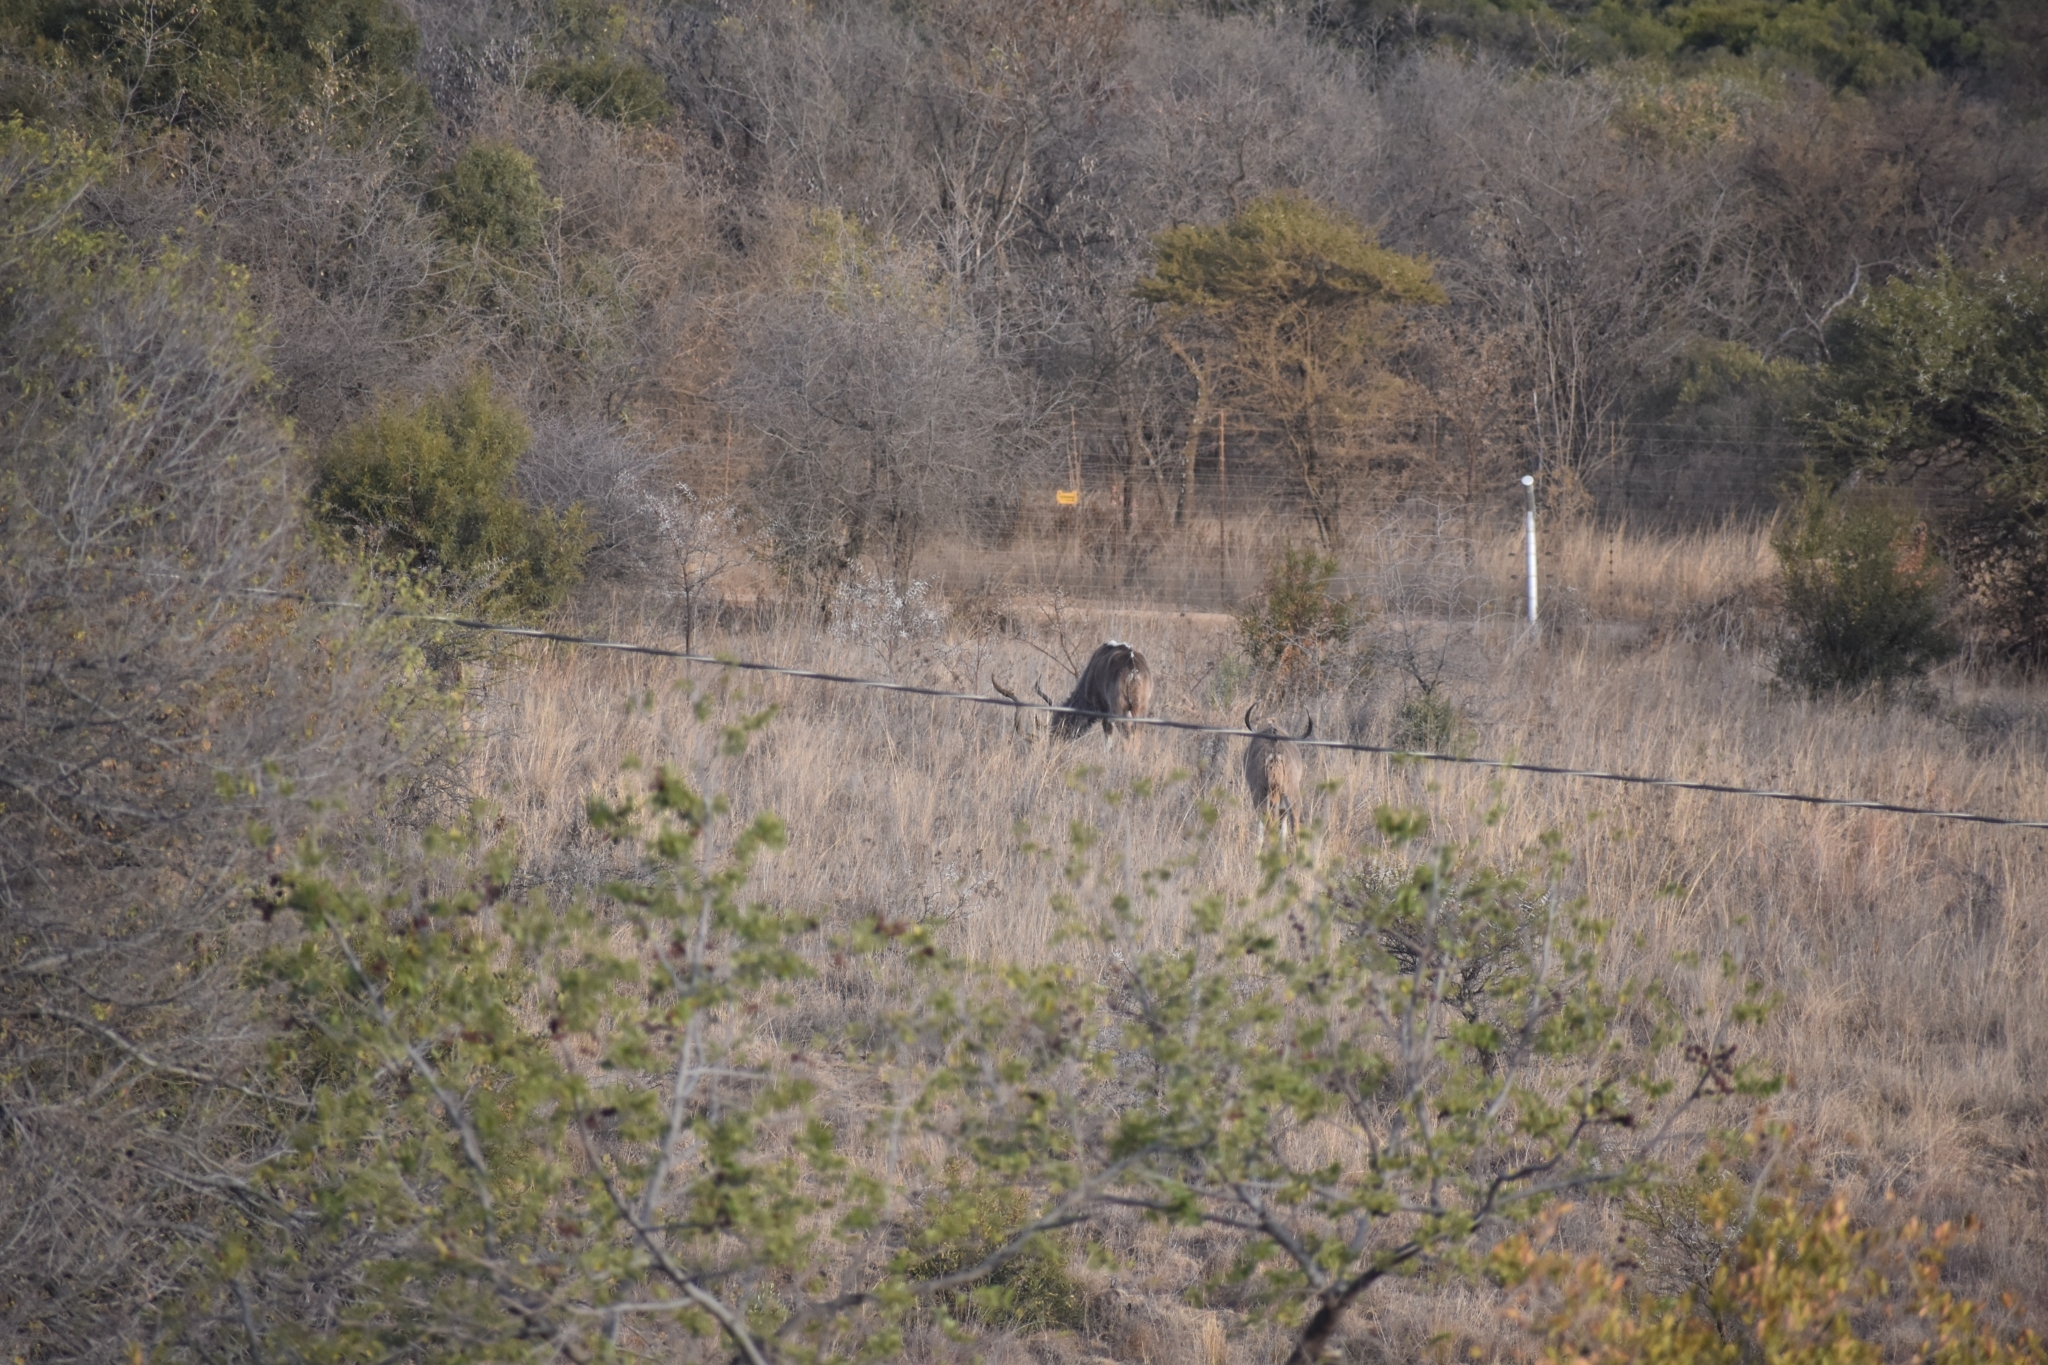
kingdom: Animalia
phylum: Chordata
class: Mammalia
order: Artiodactyla
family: Bovidae
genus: Tragelaphus
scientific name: Tragelaphus strepsiceros
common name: Greater kudu
